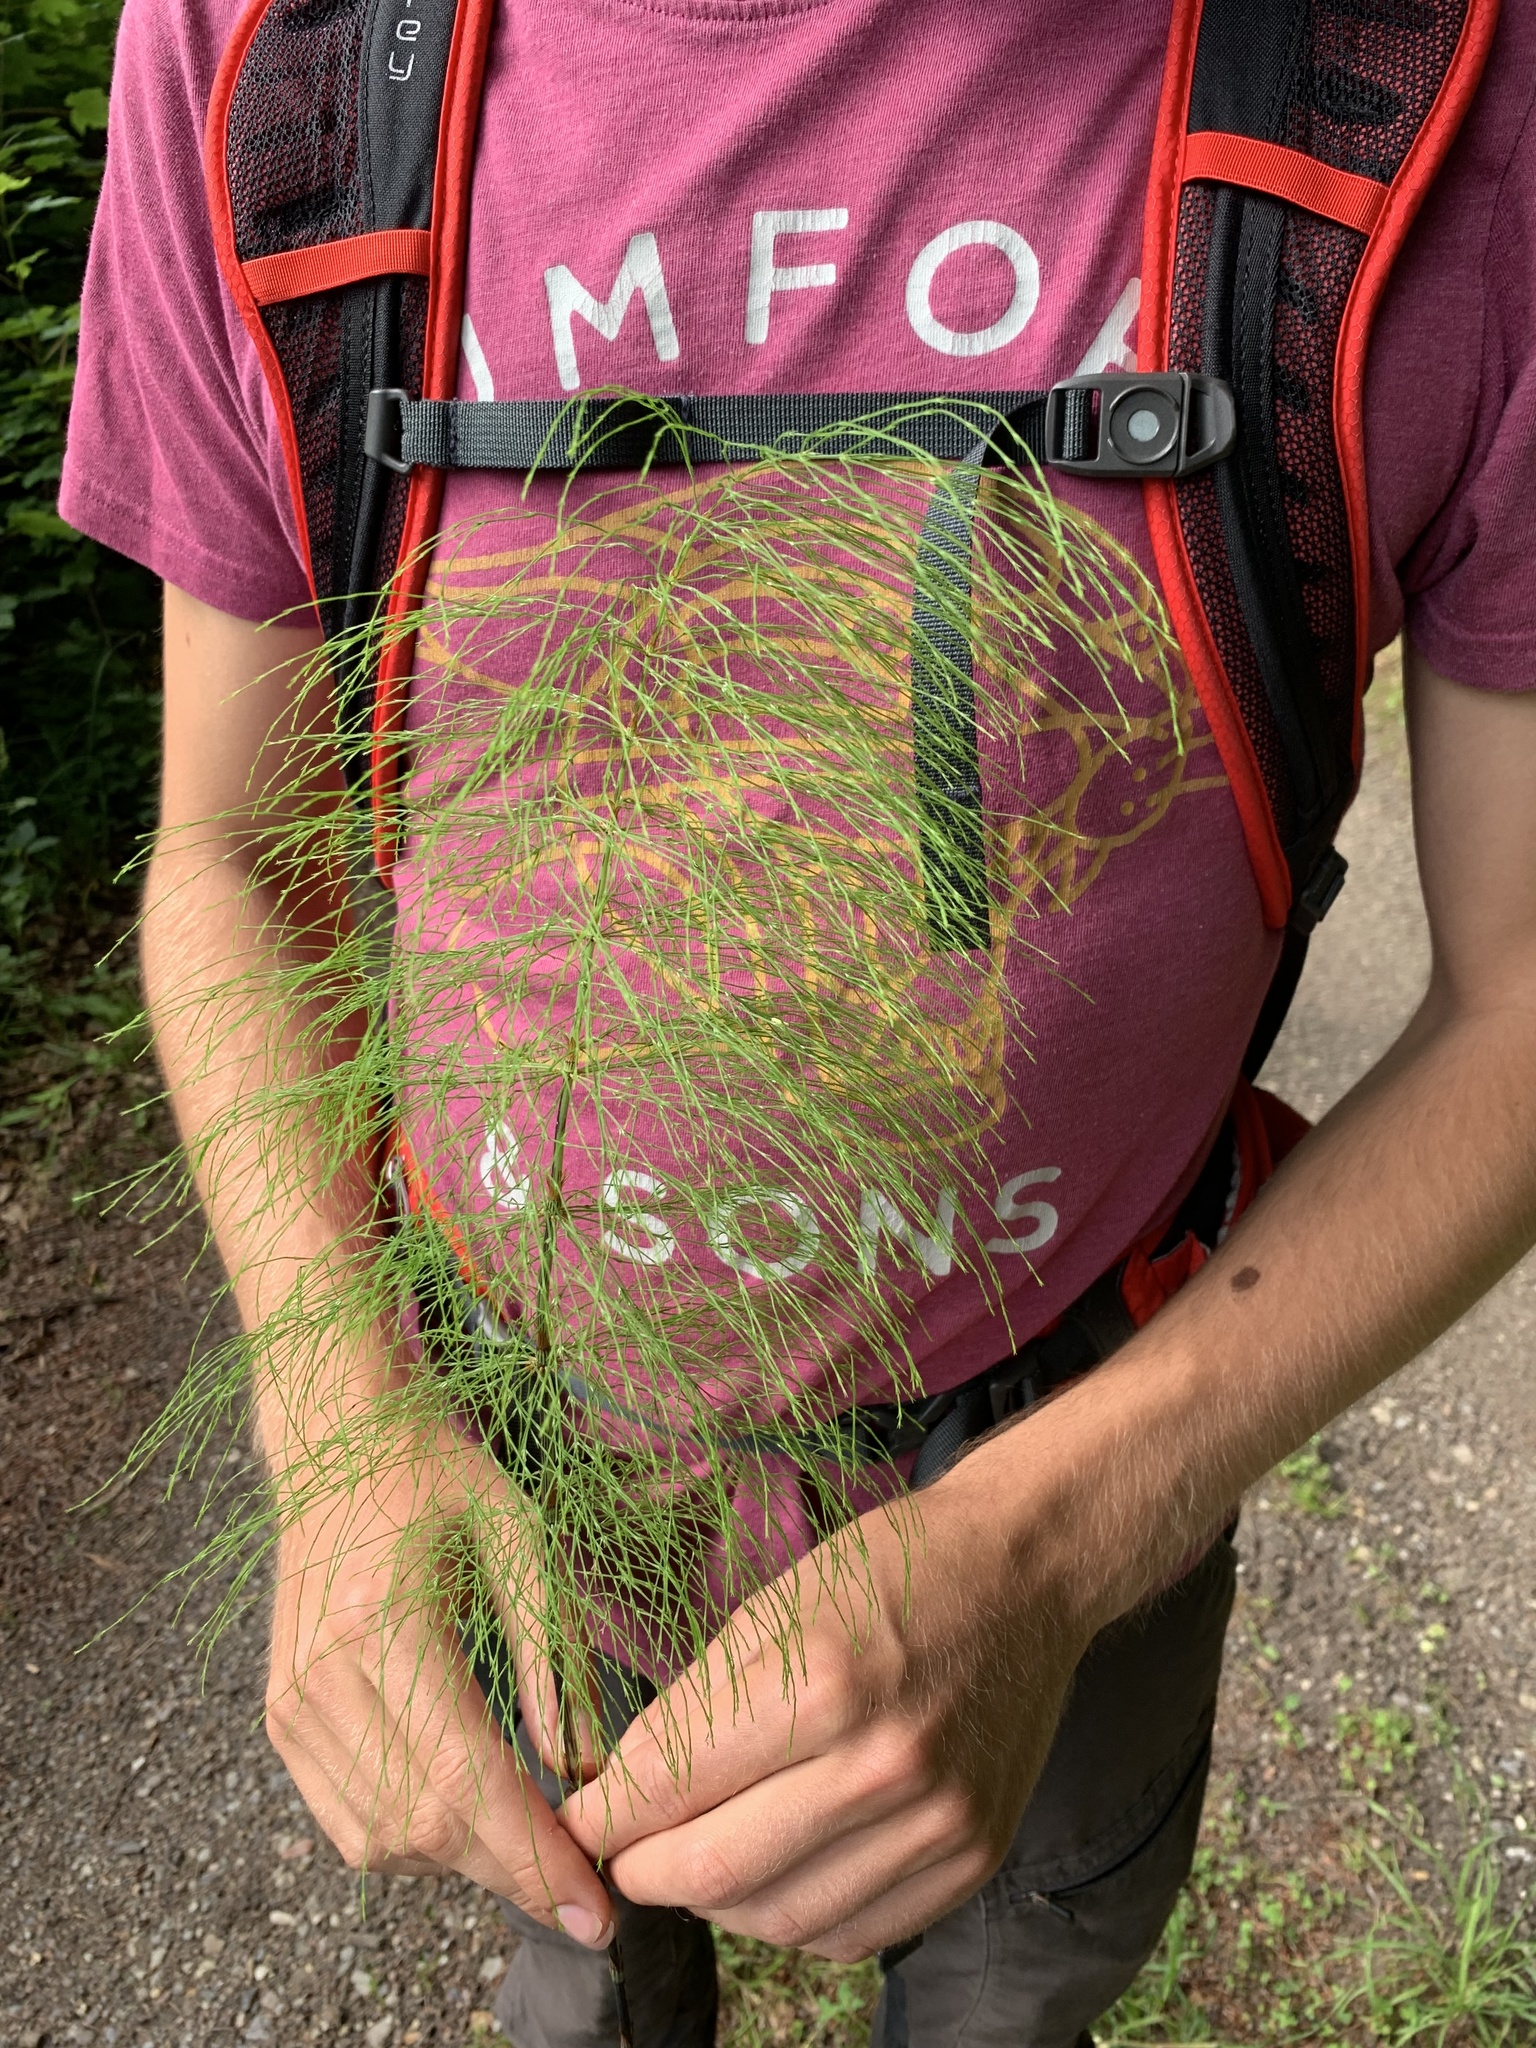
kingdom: Plantae
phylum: Tracheophyta
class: Polypodiopsida
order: Equisetales
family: Equisetaceae
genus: Equisetum
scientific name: Equisetum sylvaticum
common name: Wood horsetail
